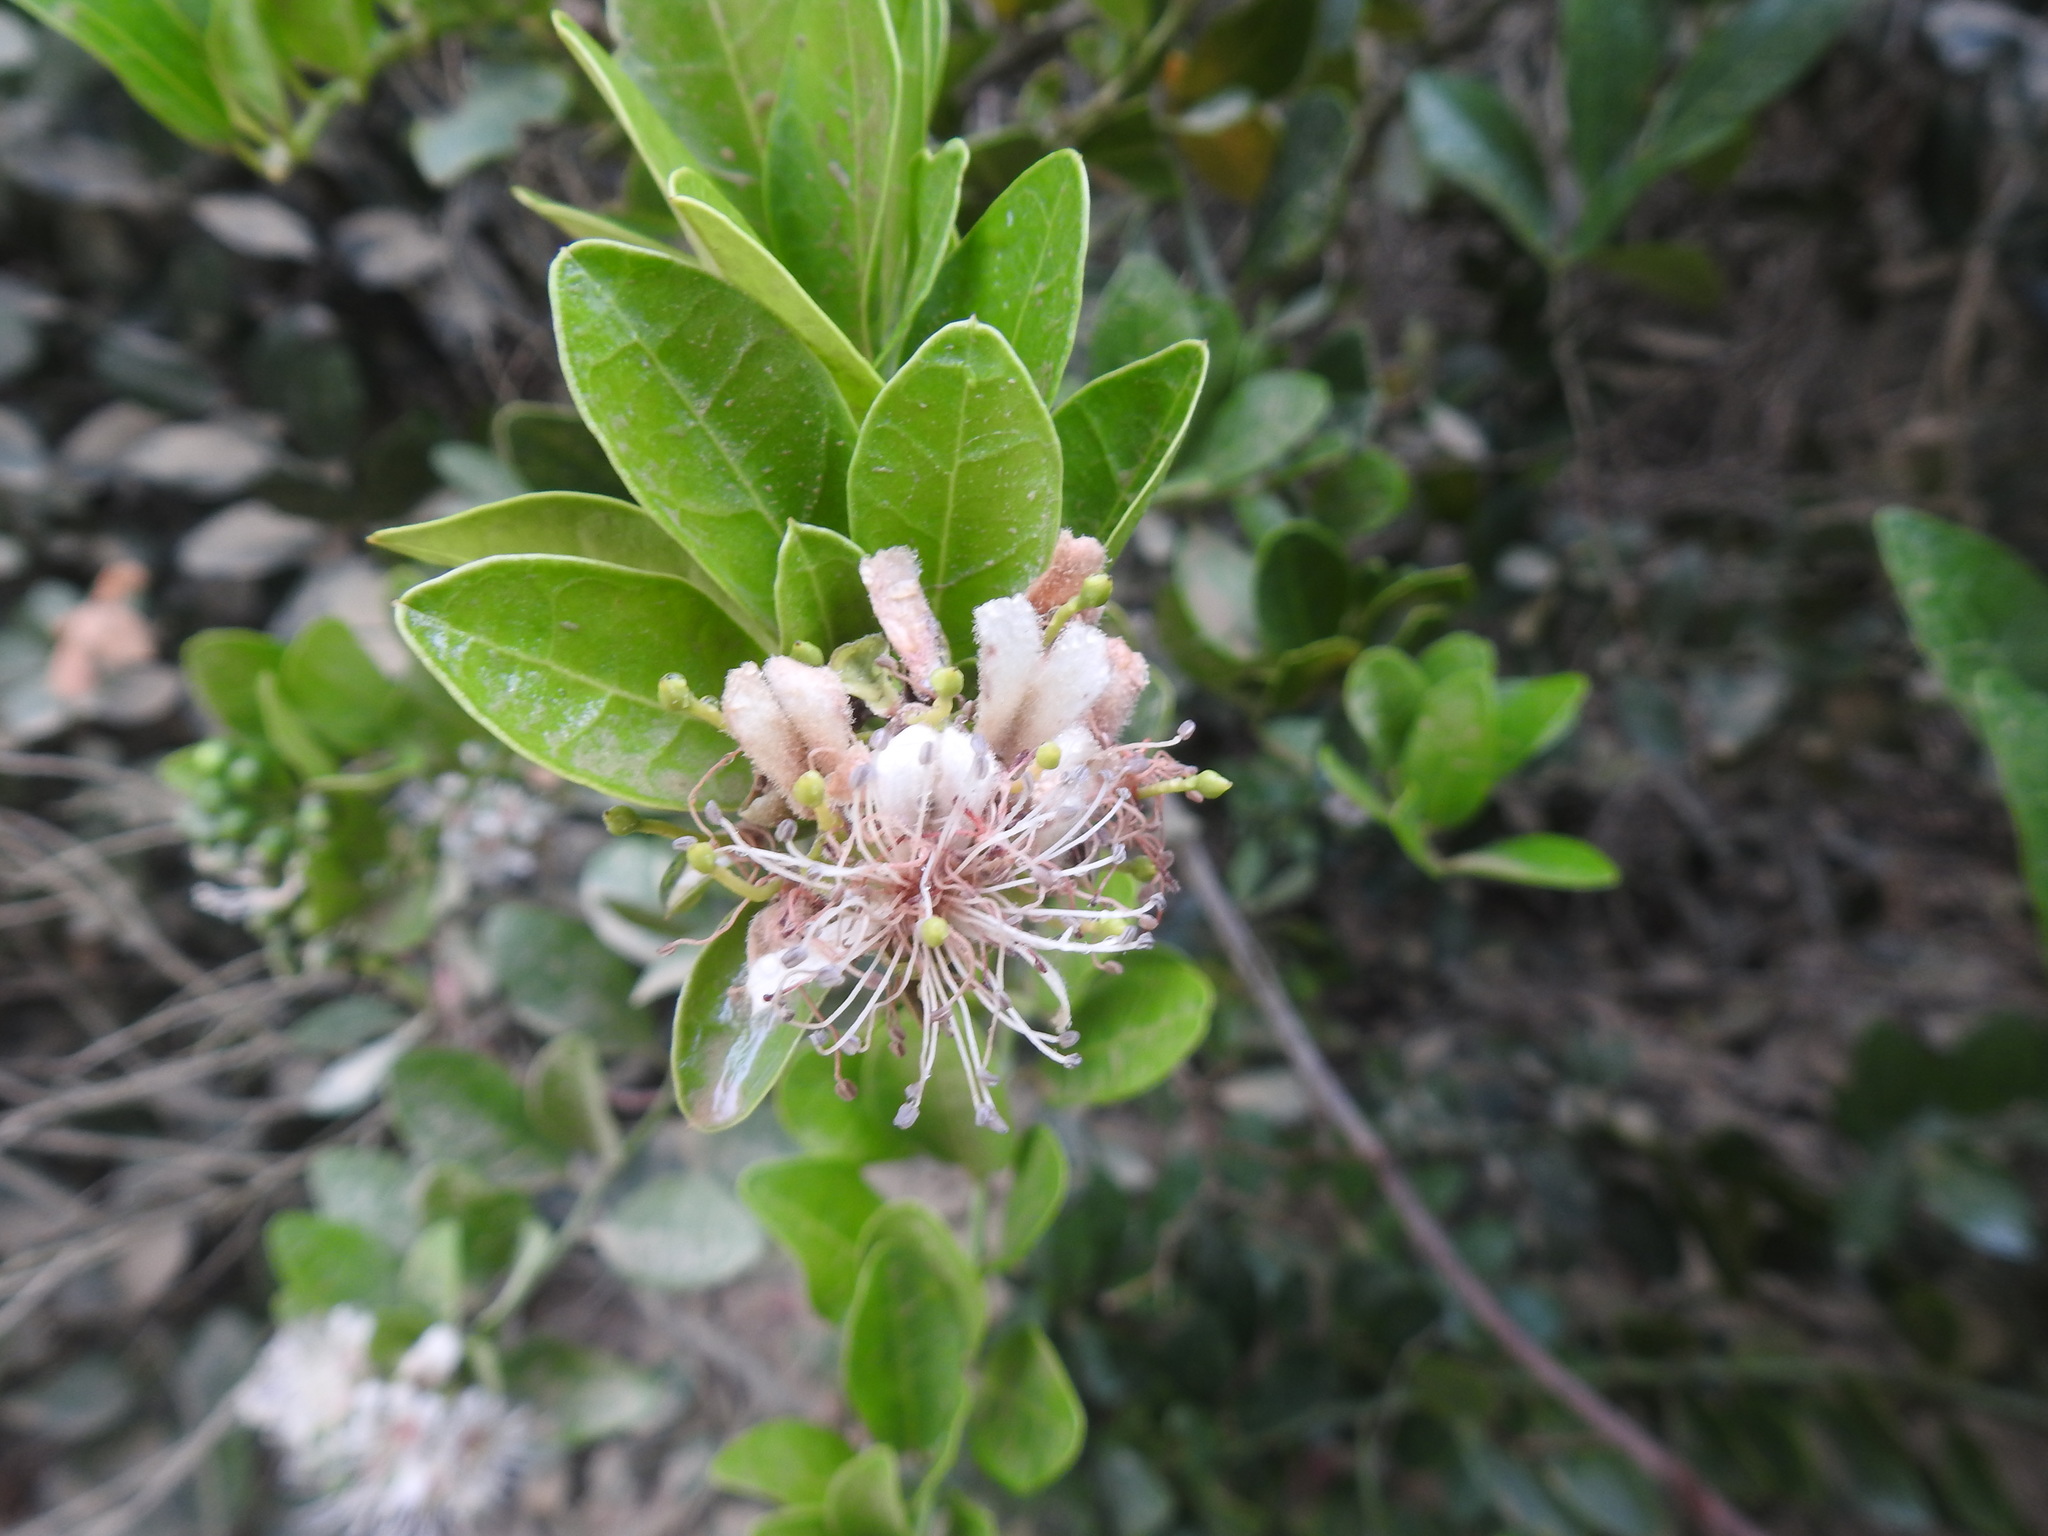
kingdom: Plantae
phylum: Tracheophyta
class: Magnoliopsida
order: Brassicales
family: Capparaceae
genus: Capparis
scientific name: Capparis sepiaria
